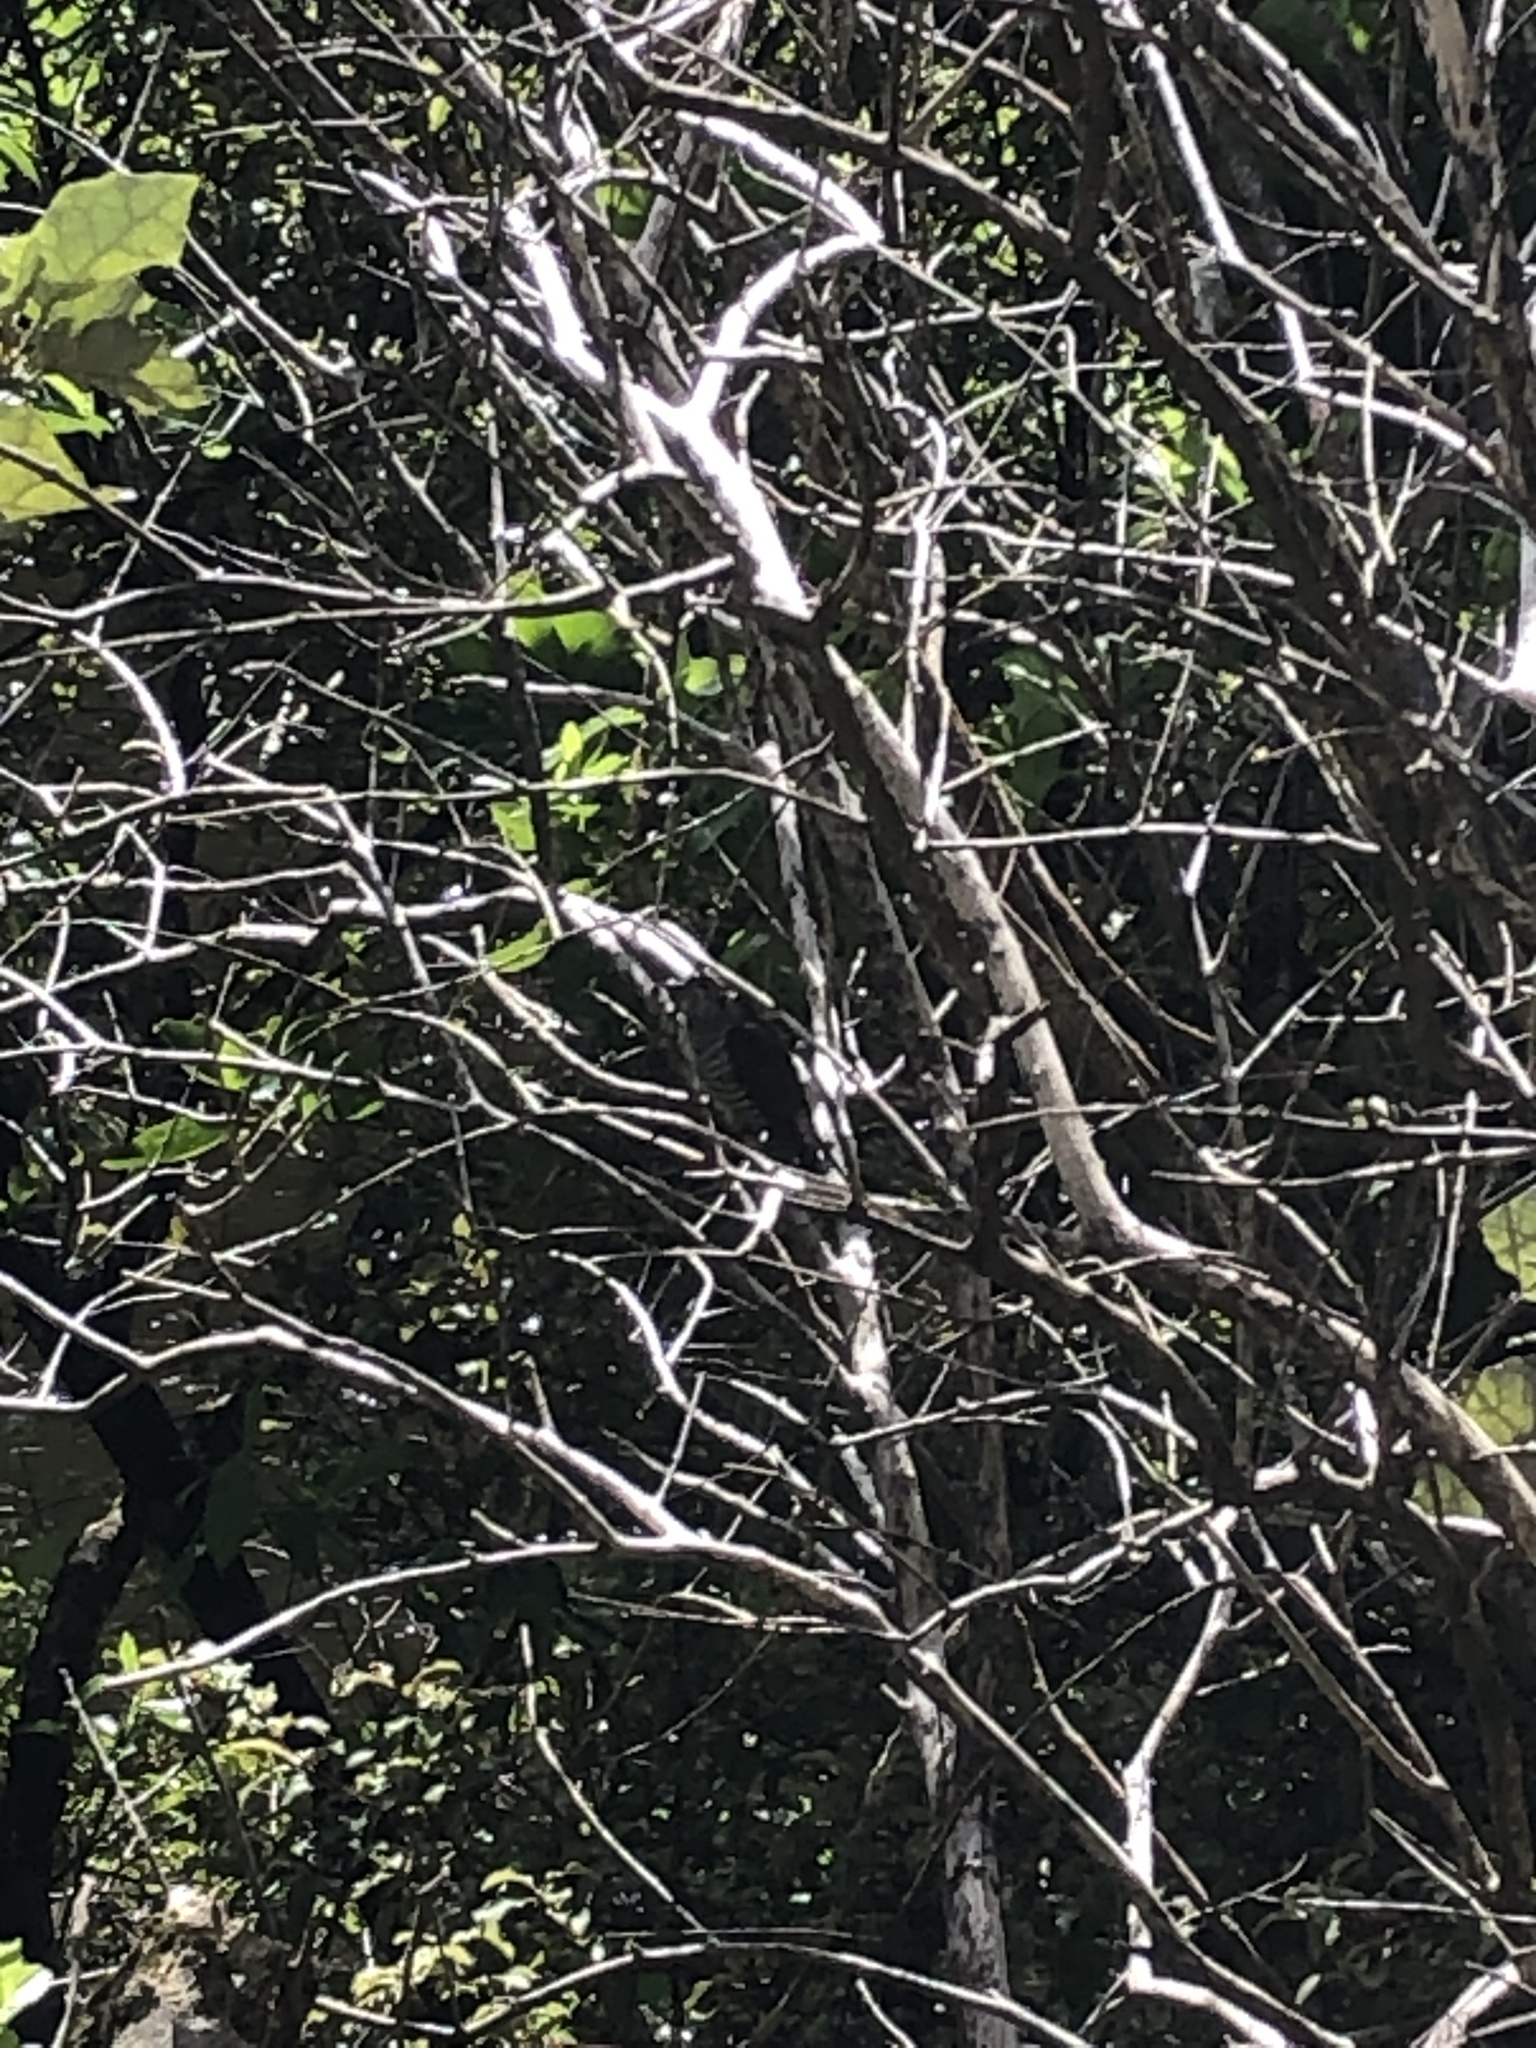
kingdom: Animalia
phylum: Chordata
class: Aves
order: Cuculiformes
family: Cuculidae
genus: Chrysococcyx
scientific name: Chrysococcyx lucidus
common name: Shining bronze cuckoo
